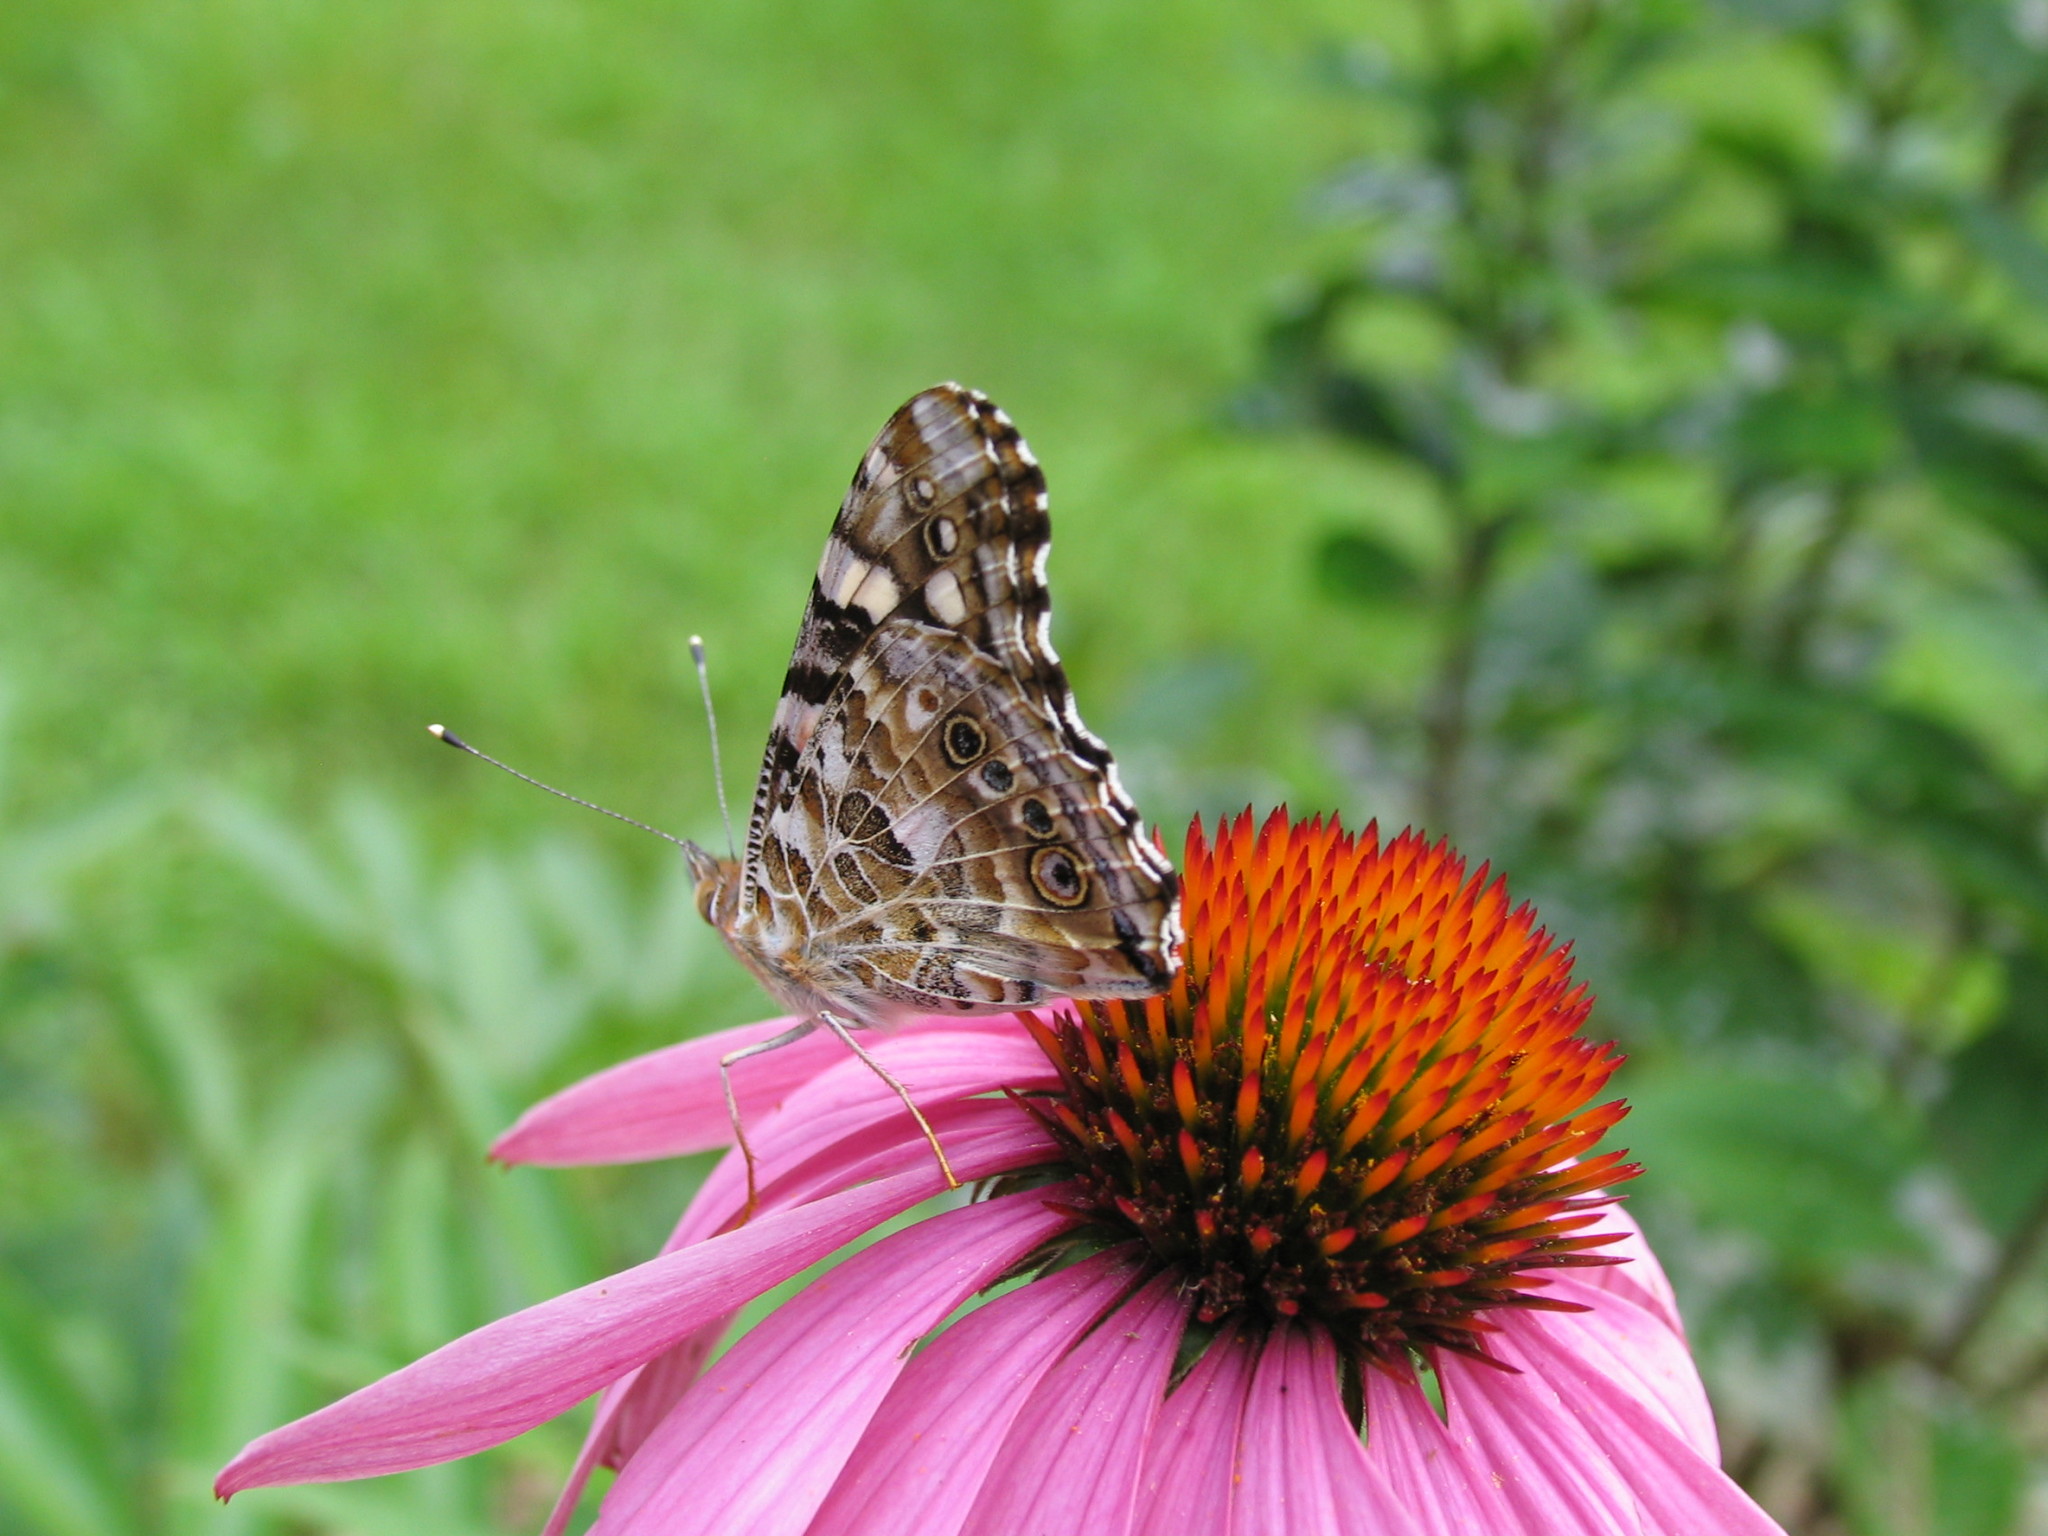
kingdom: Animalia
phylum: Arthropoda
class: Insecta
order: Lepidoptera
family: Nymphalidae
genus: Vanessa
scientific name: Vanessa cardui
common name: Painted lady
